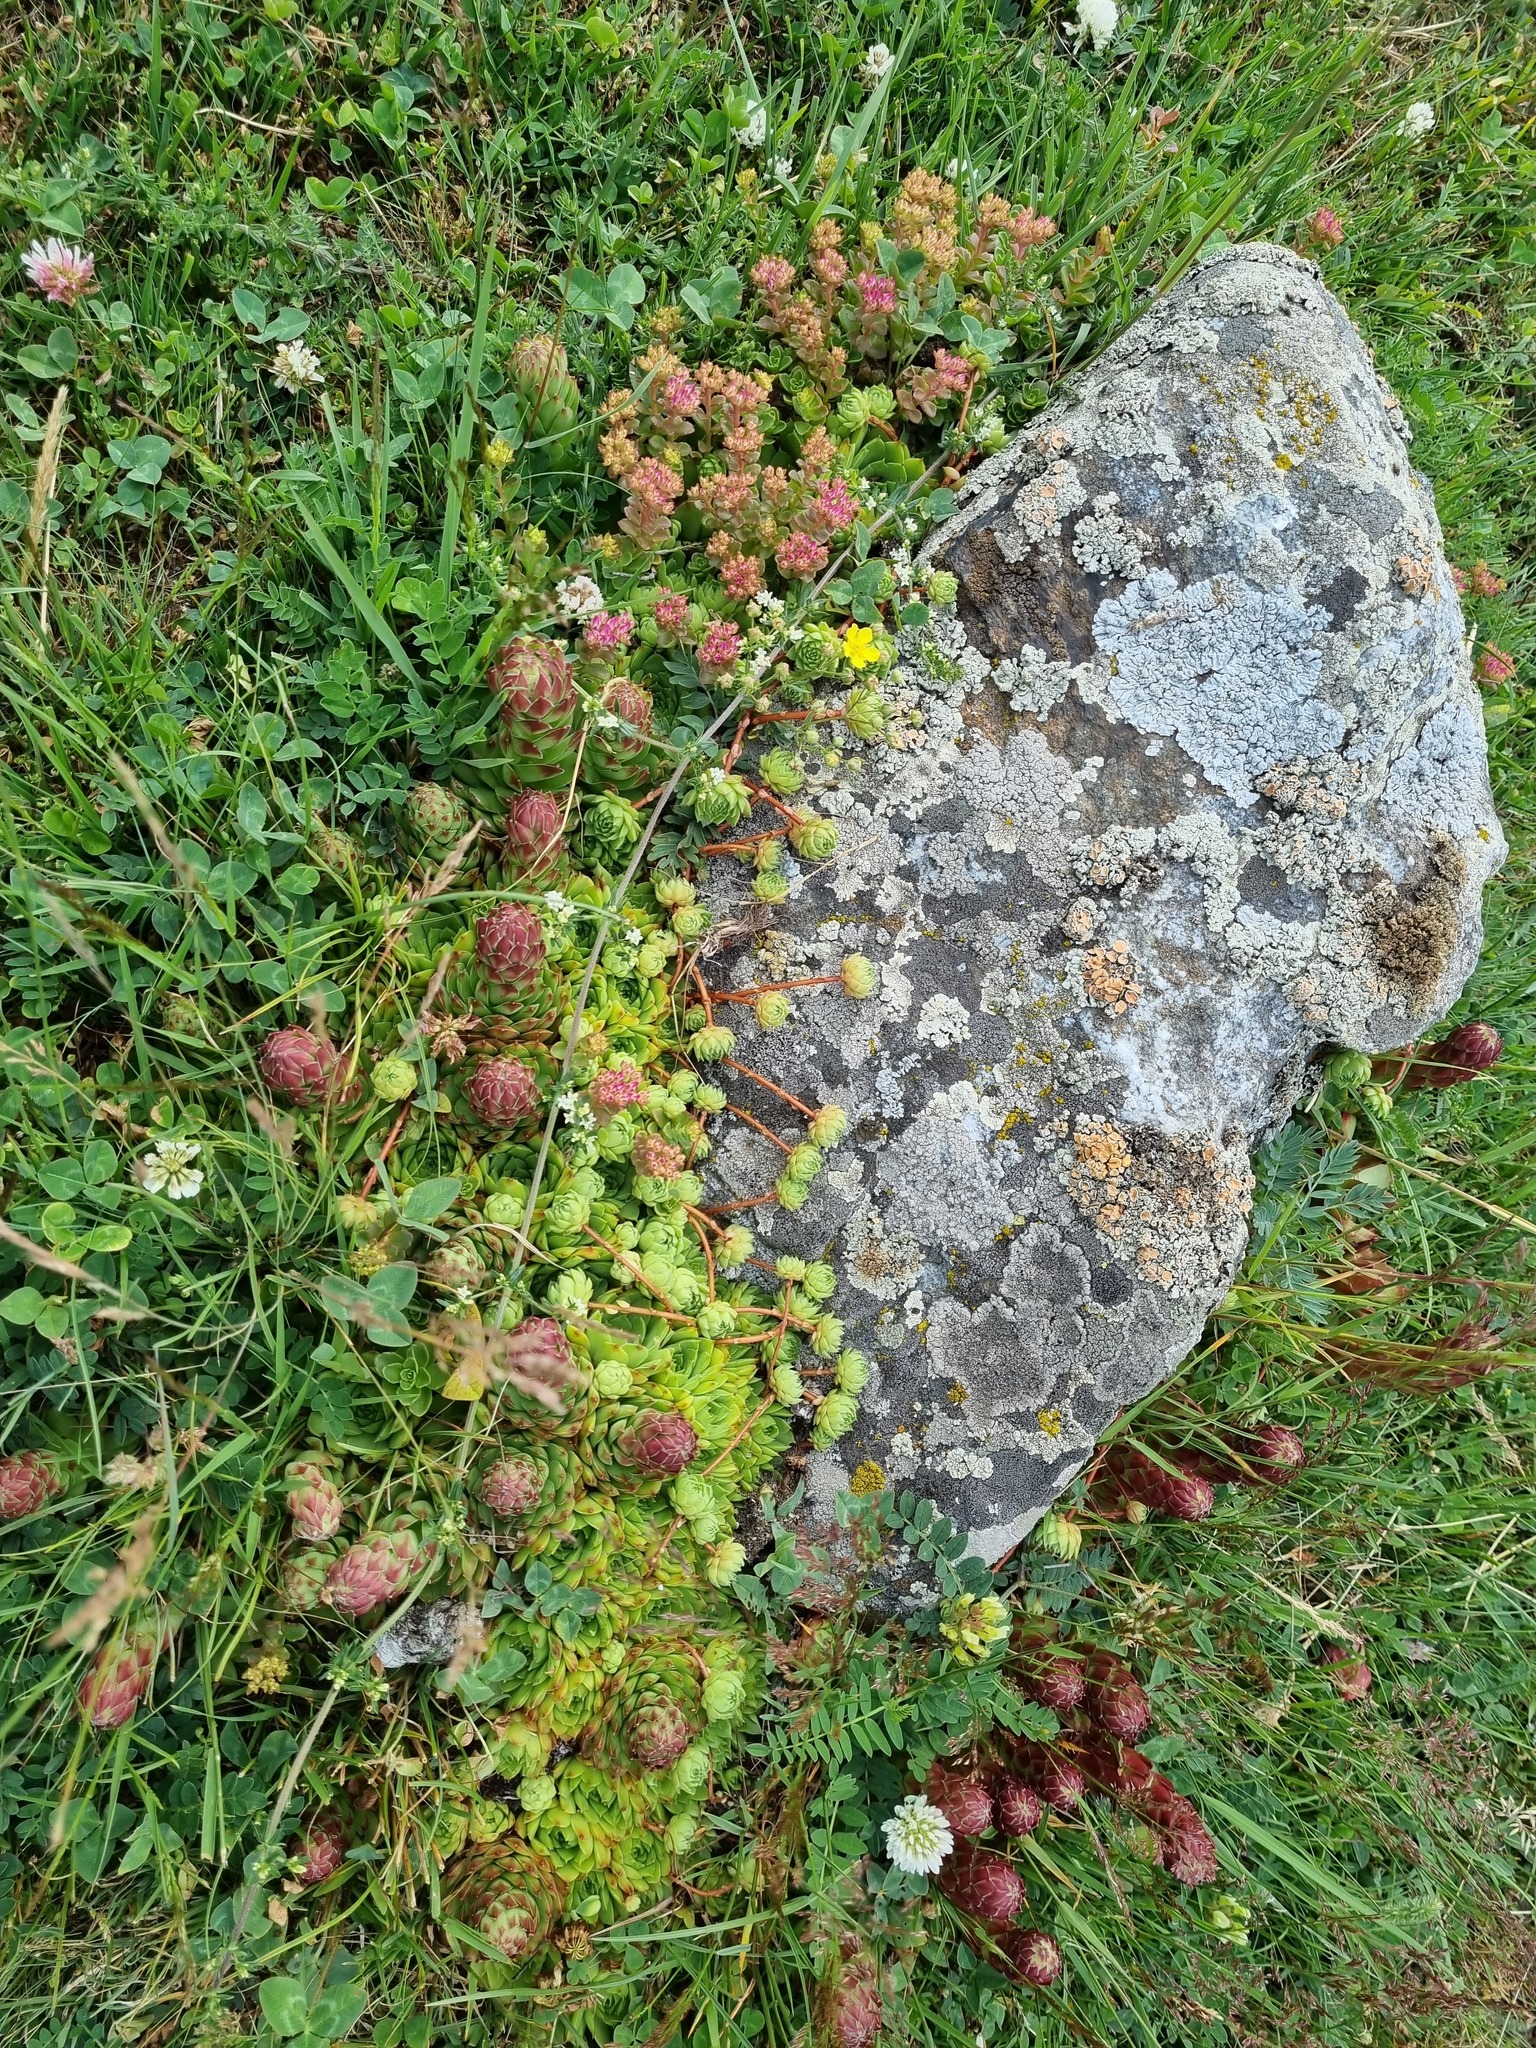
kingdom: Plantae
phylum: Tracheophyta
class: Magnoliopsida
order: Saxifragales
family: Crassulaceae
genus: Sempervivum
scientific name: Sempervivum caucasicum
